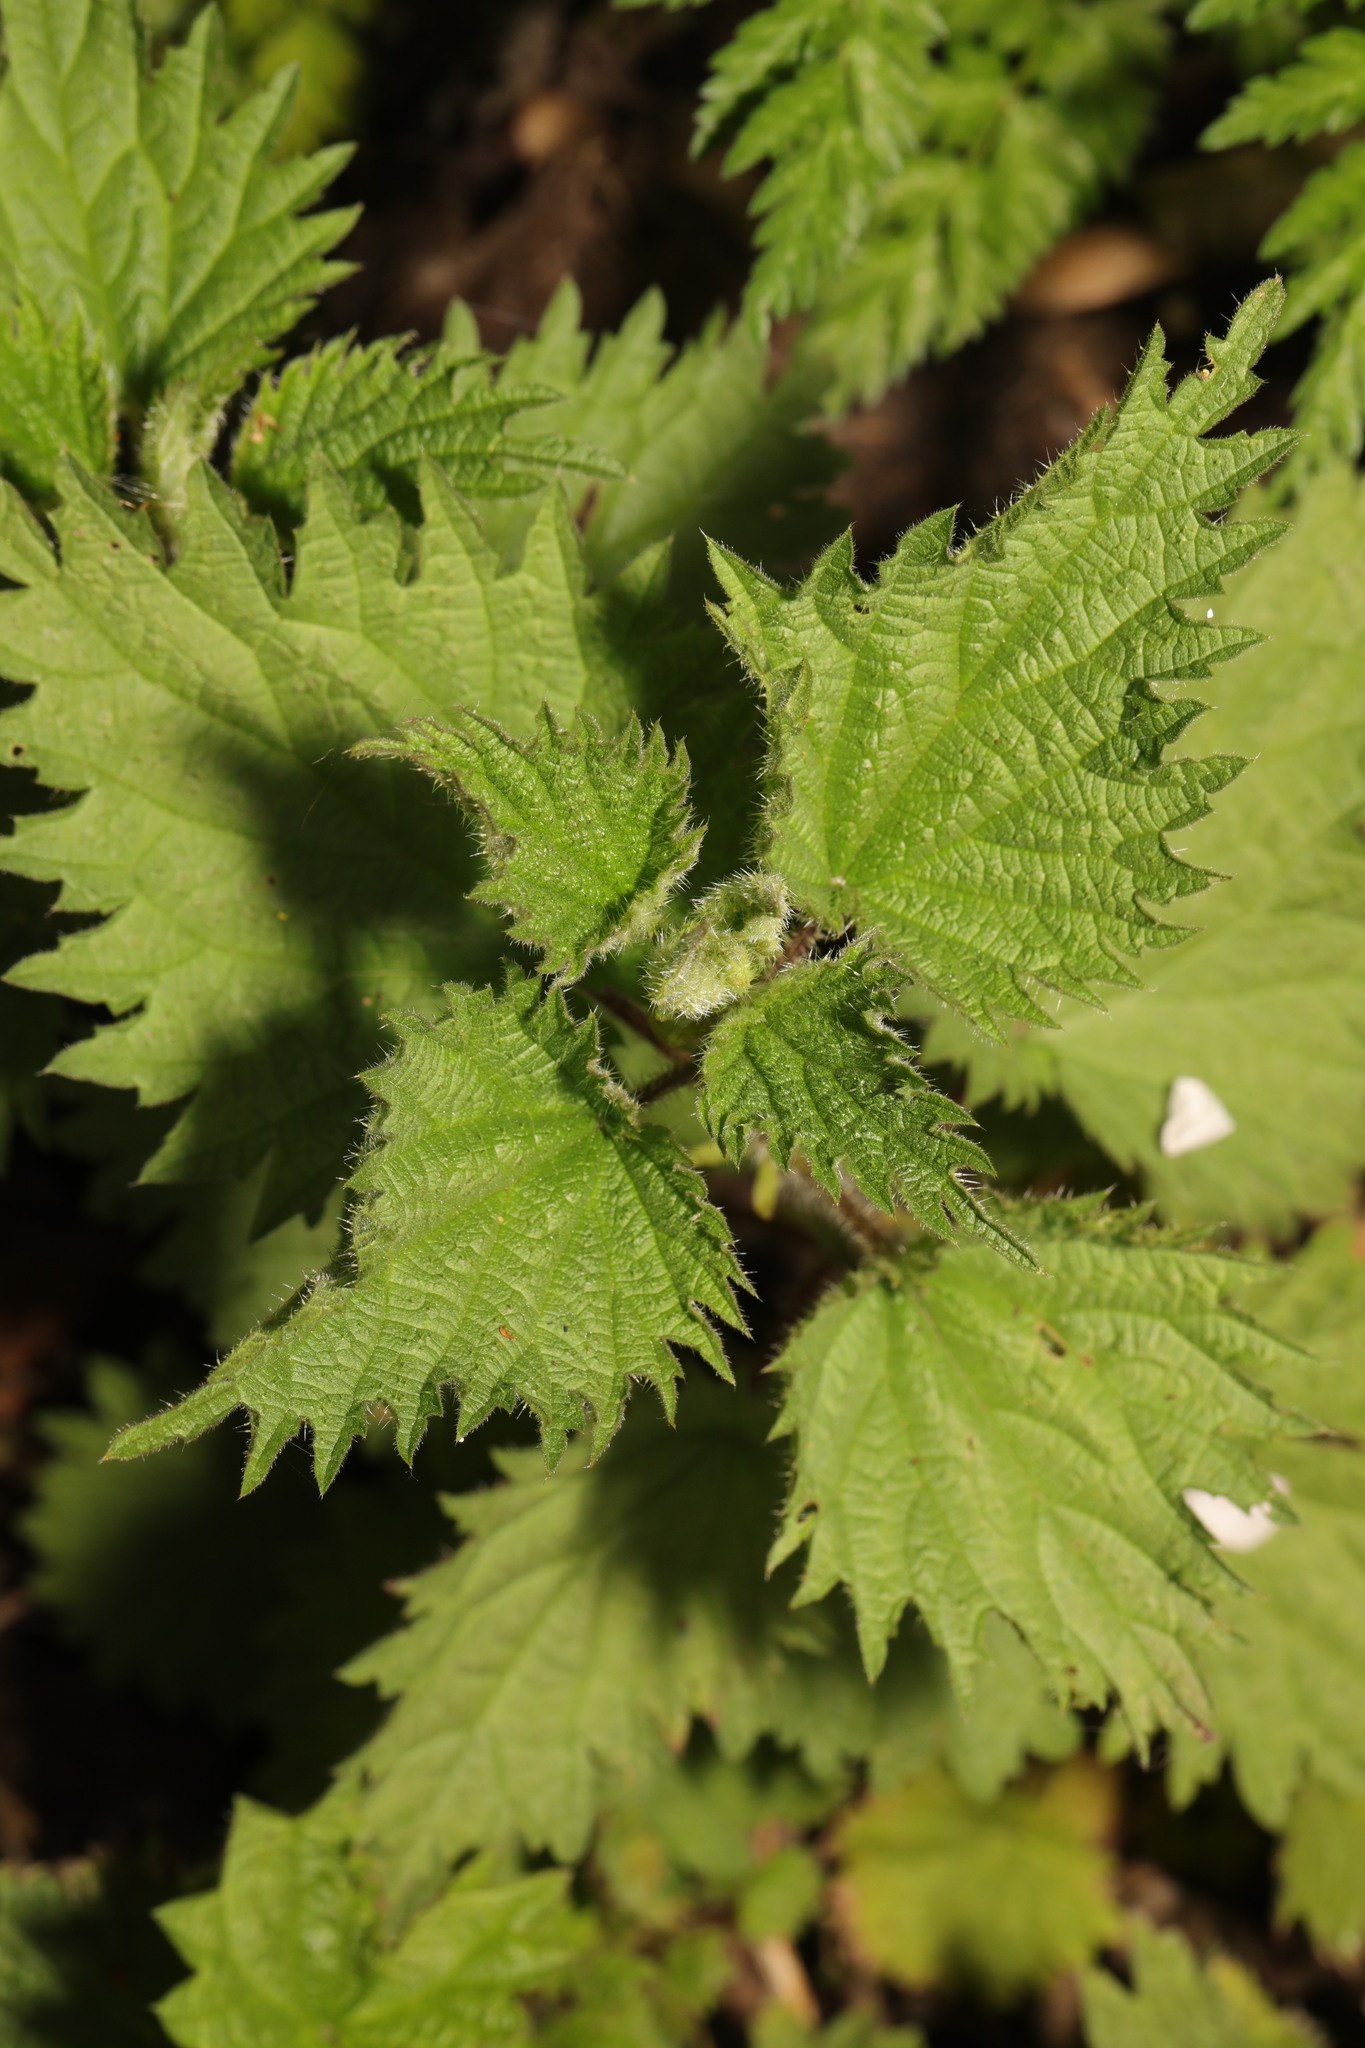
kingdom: Plantae
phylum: Tracheophyta
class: Magnoliopsida
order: Rosales
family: Urticaceae
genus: Urtica
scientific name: Urtica dioica
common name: Common nettle
